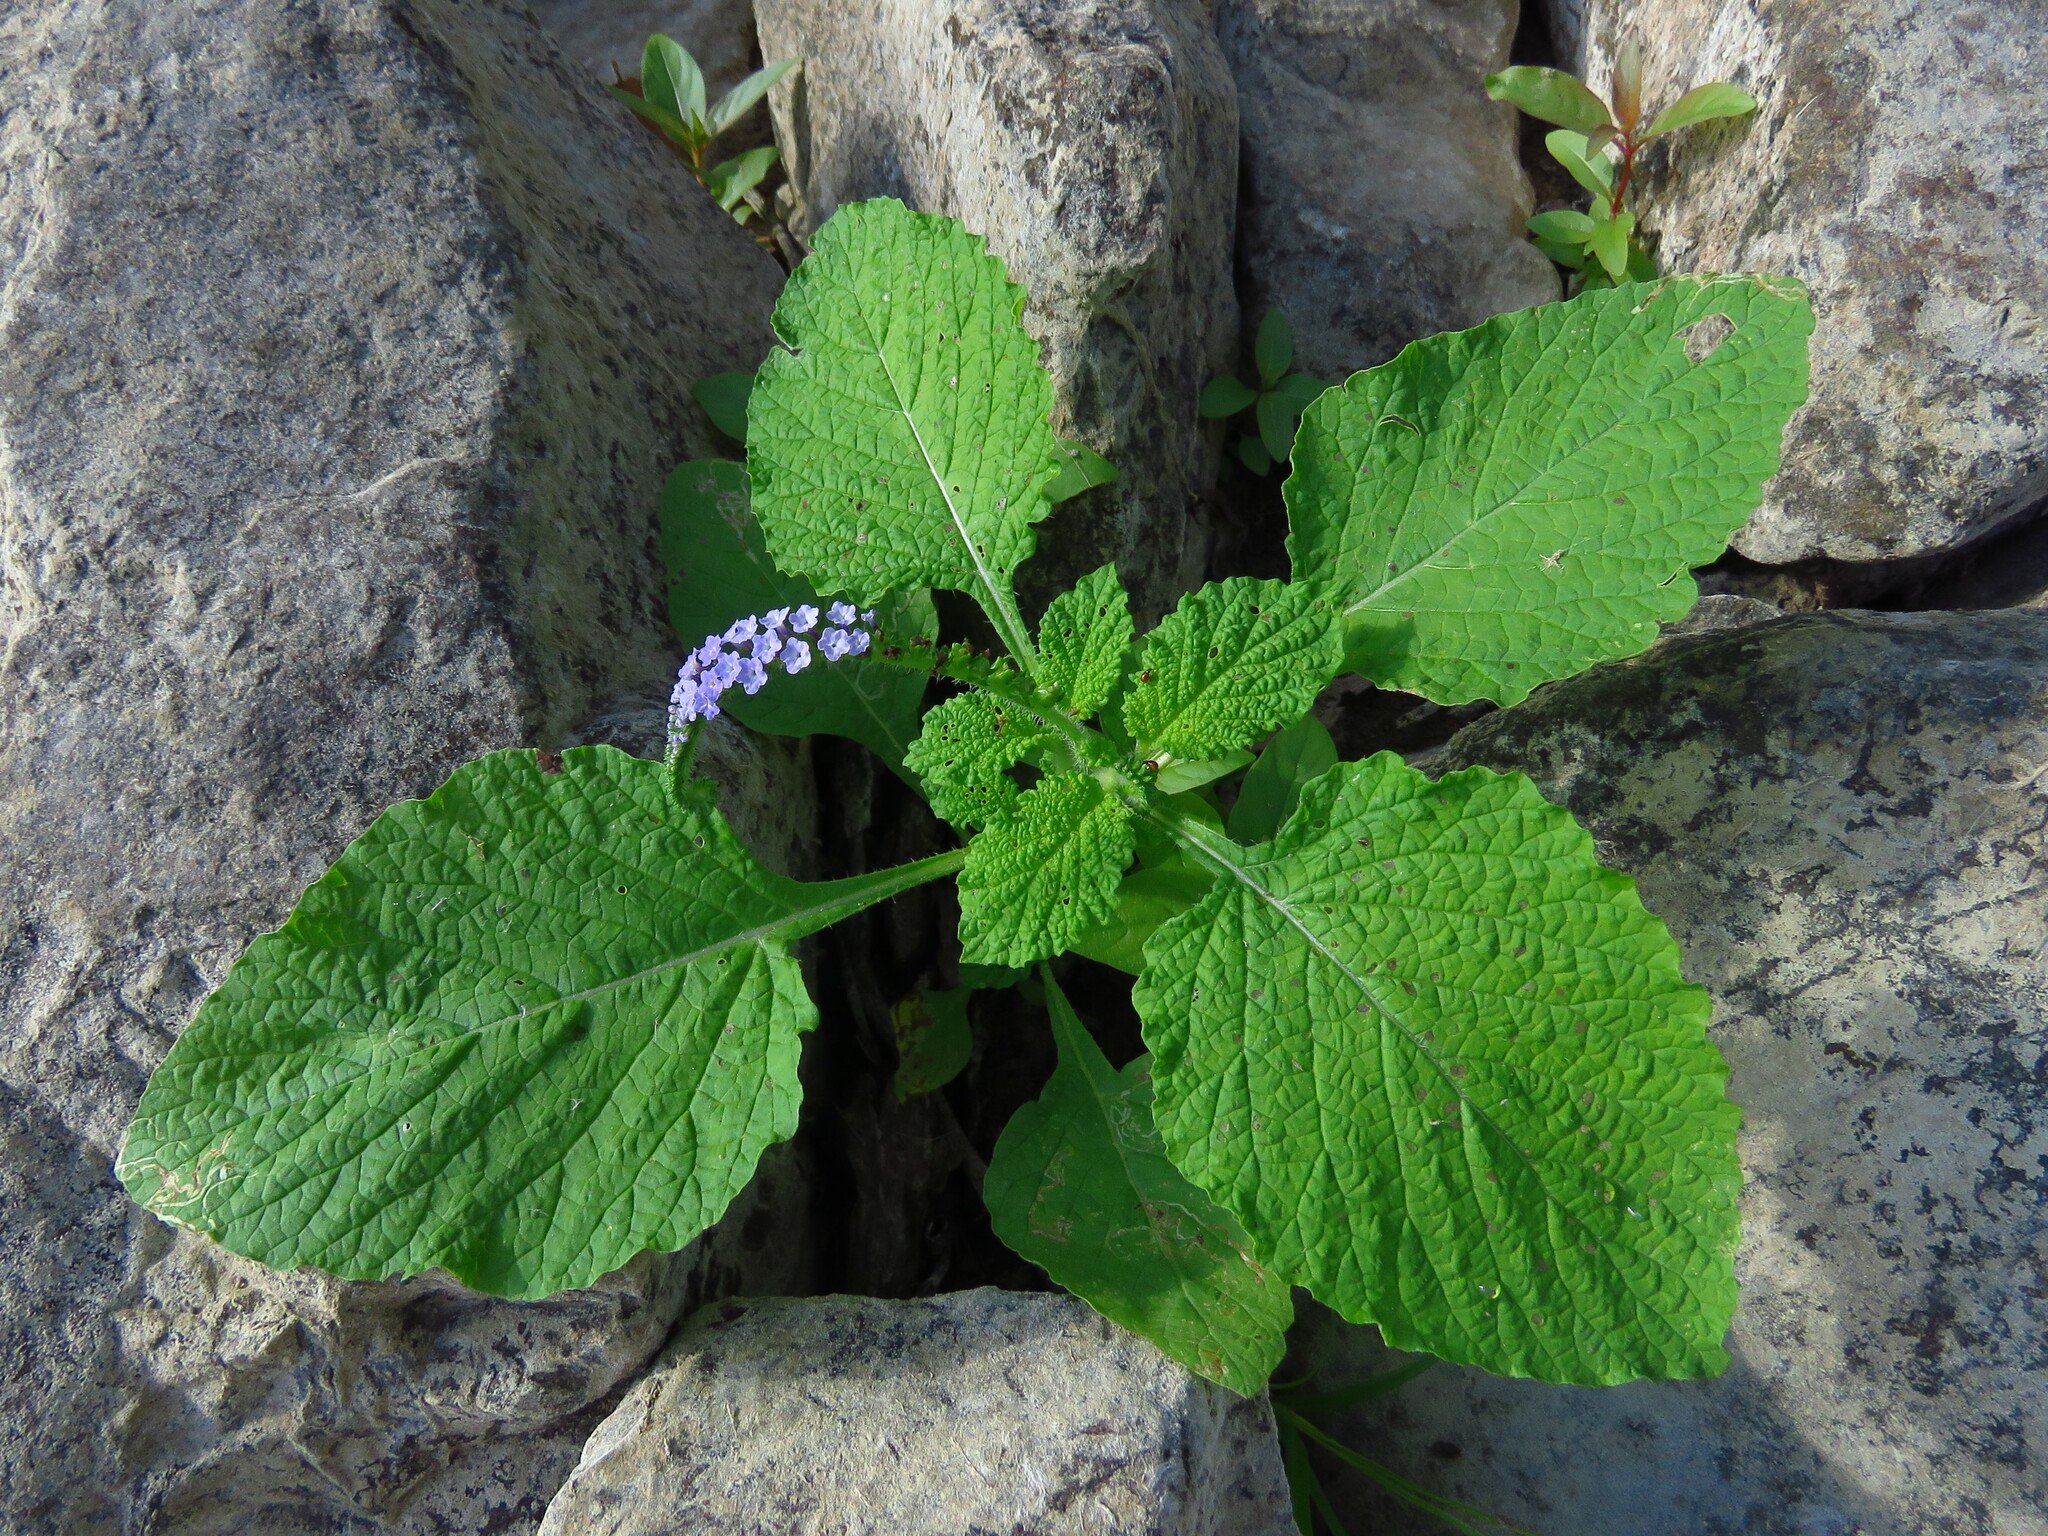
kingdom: Plantae
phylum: Tracheophyta
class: Magnoliopsida
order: Boraginales
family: Heliotropiaceae
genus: Heliotropium
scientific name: Heliotropium indicum
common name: Indian heliotrope
